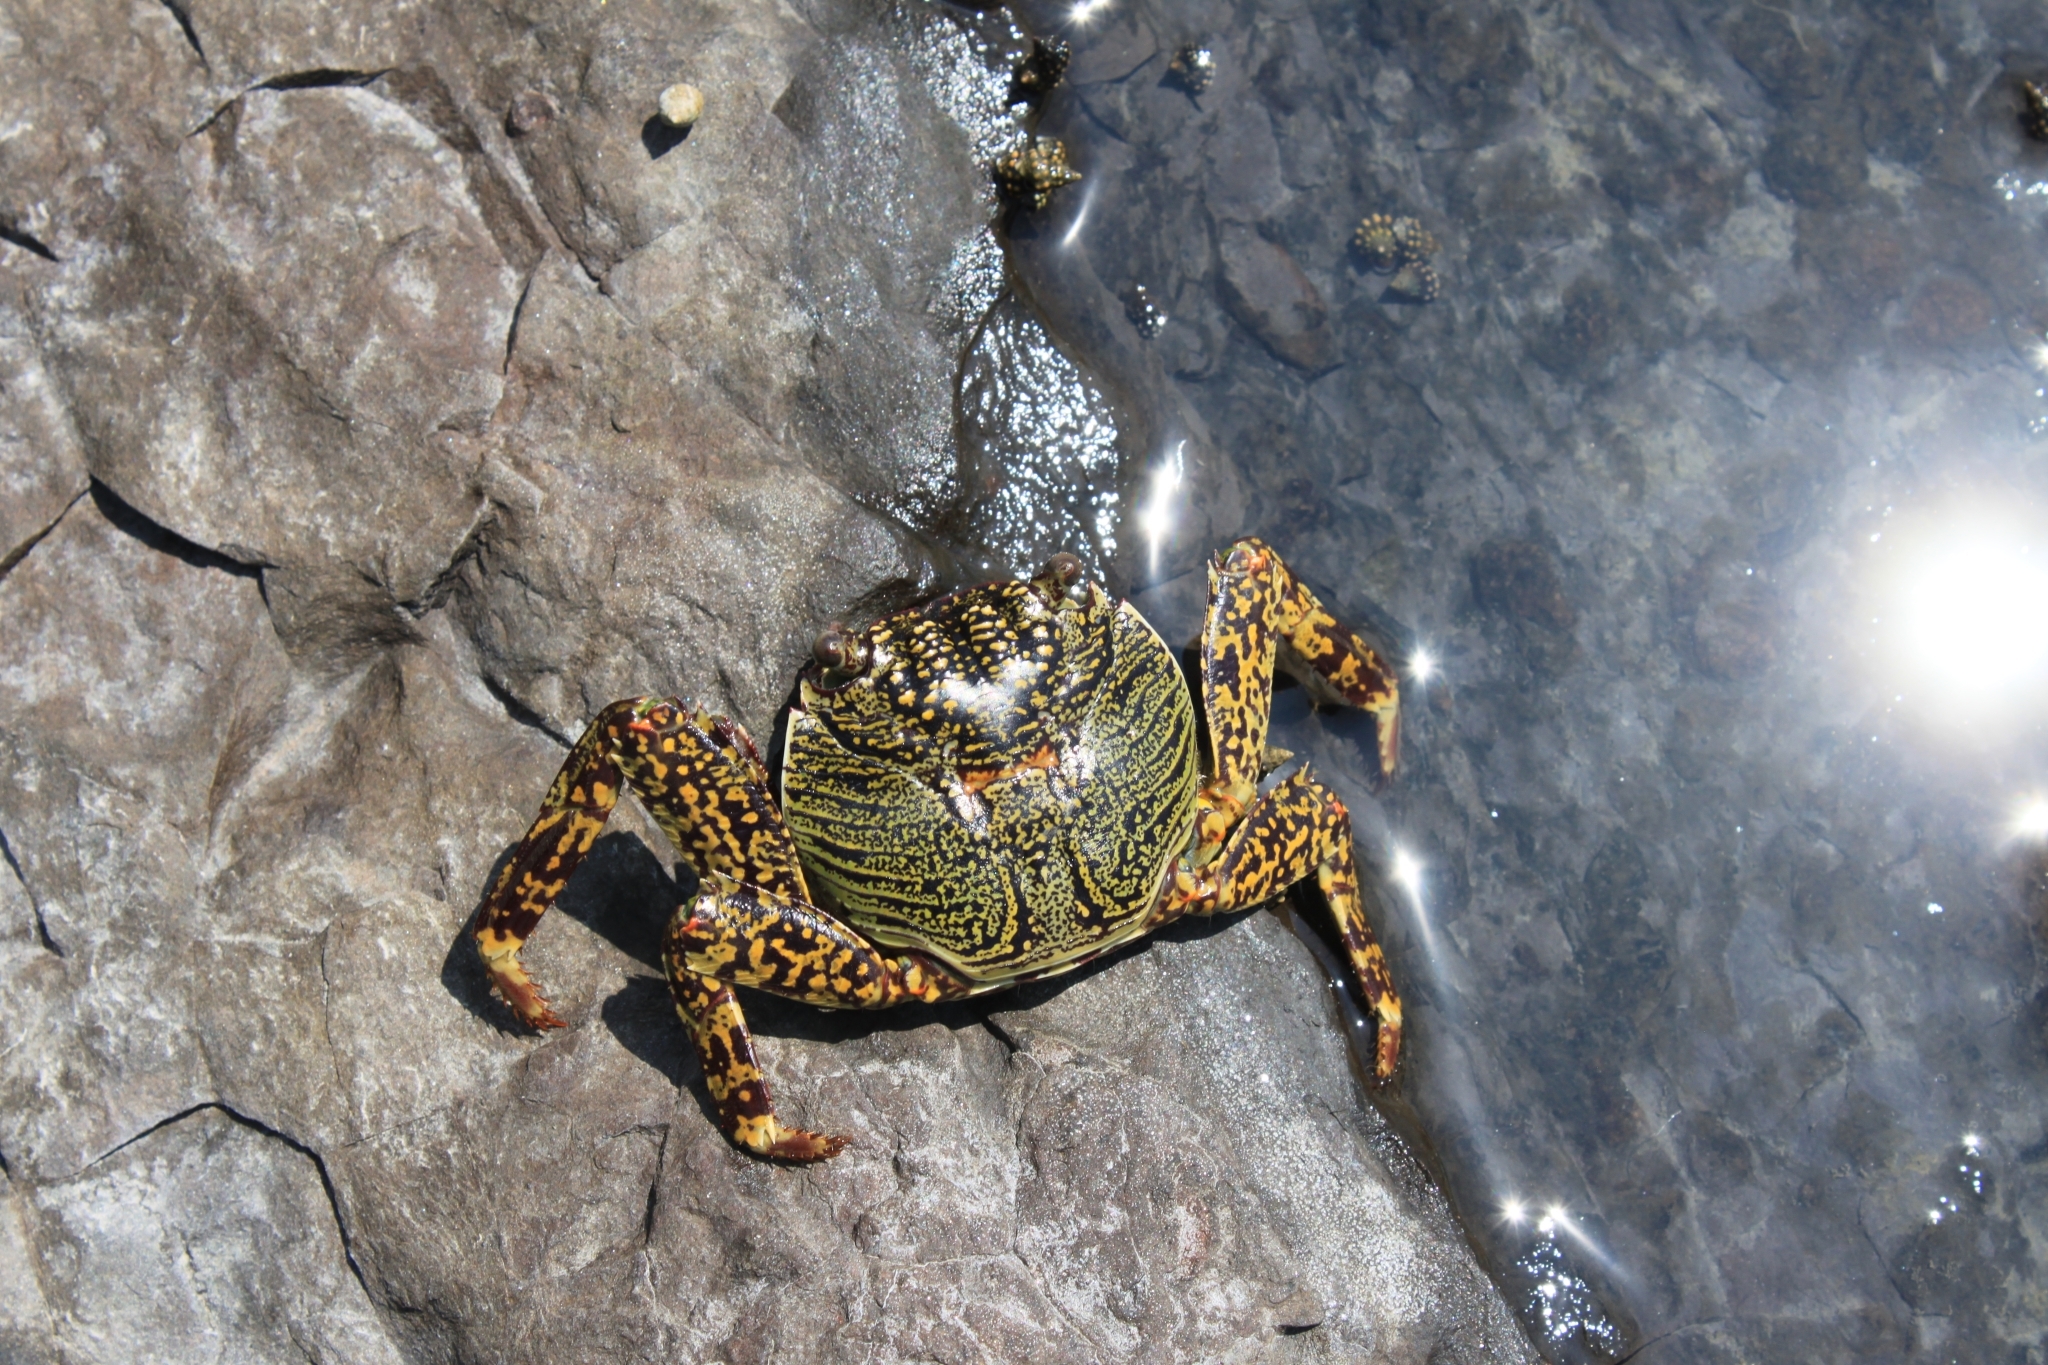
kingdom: Animalia
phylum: Arthropoda
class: Malacostraca
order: Decapoda
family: Grapsidae
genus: Grapsus
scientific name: Grapsus albolineatus
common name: Mottled lightfoot crab
